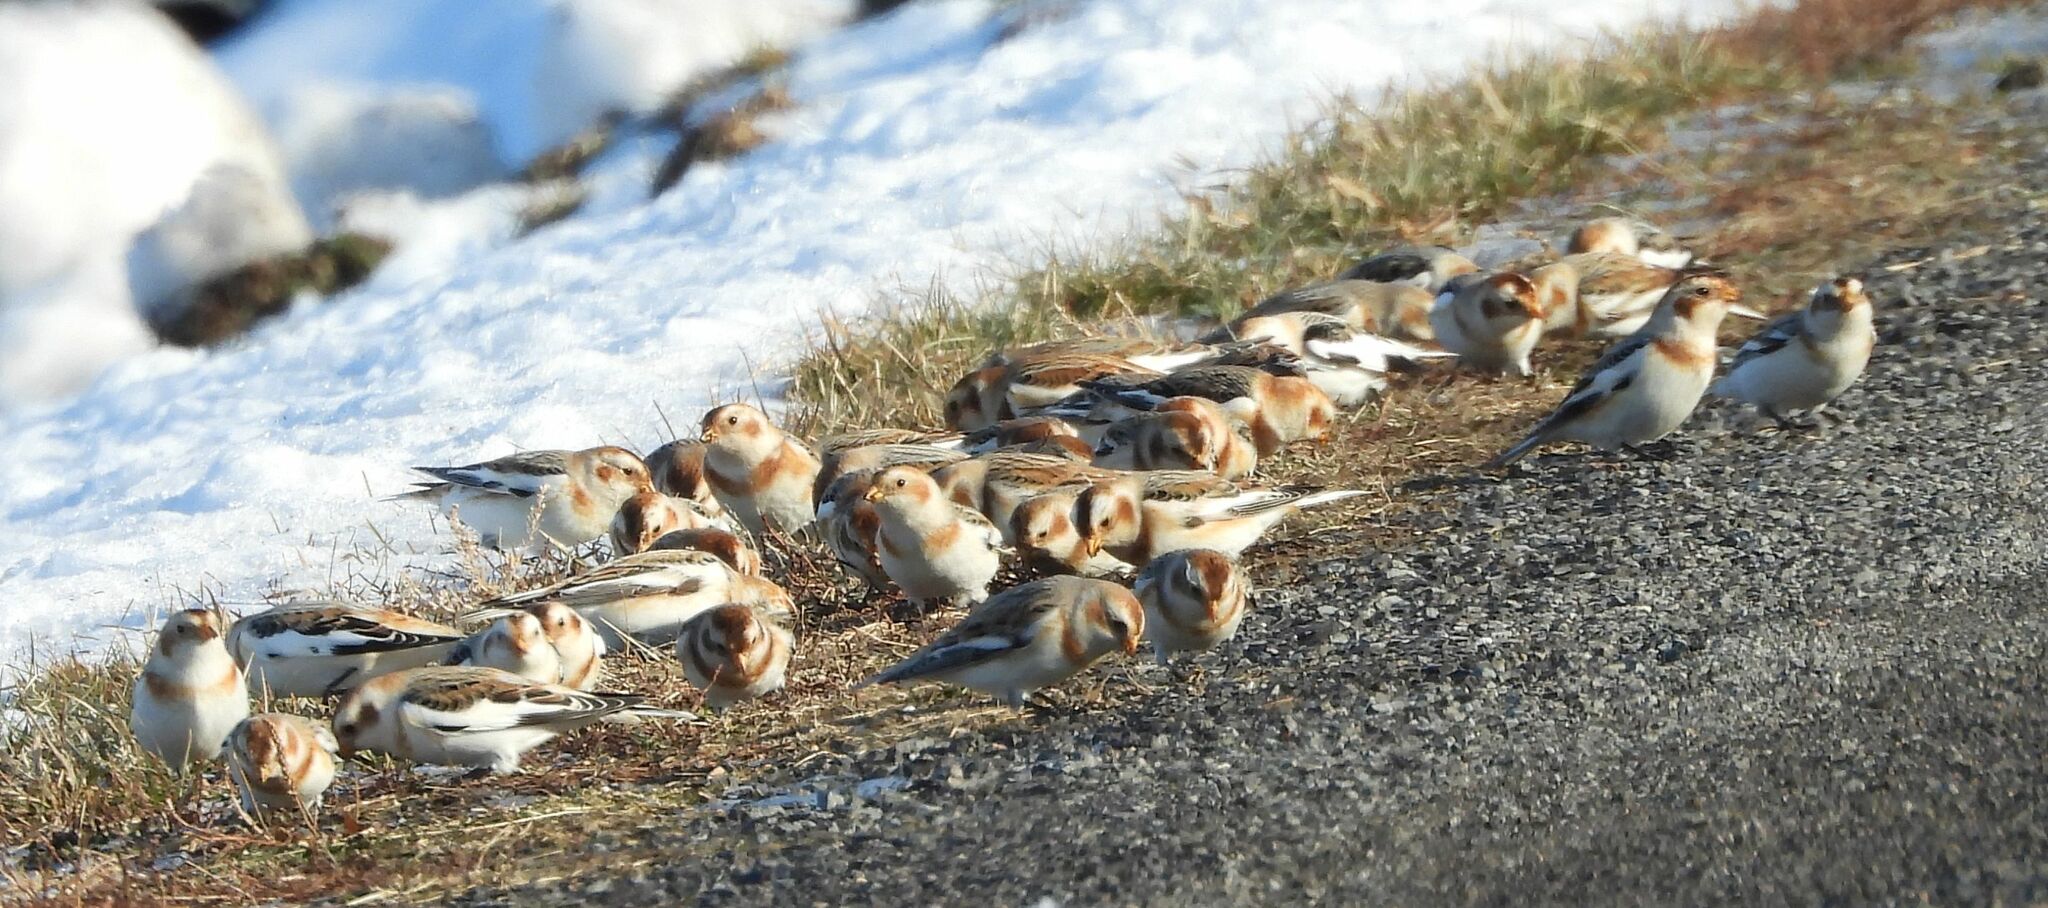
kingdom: Animalia
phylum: Chordata
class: Aves
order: Passeriformes
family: Calcariidae
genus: Plectrophenax
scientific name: Plectrophenax nivalis
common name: Snow bunting
